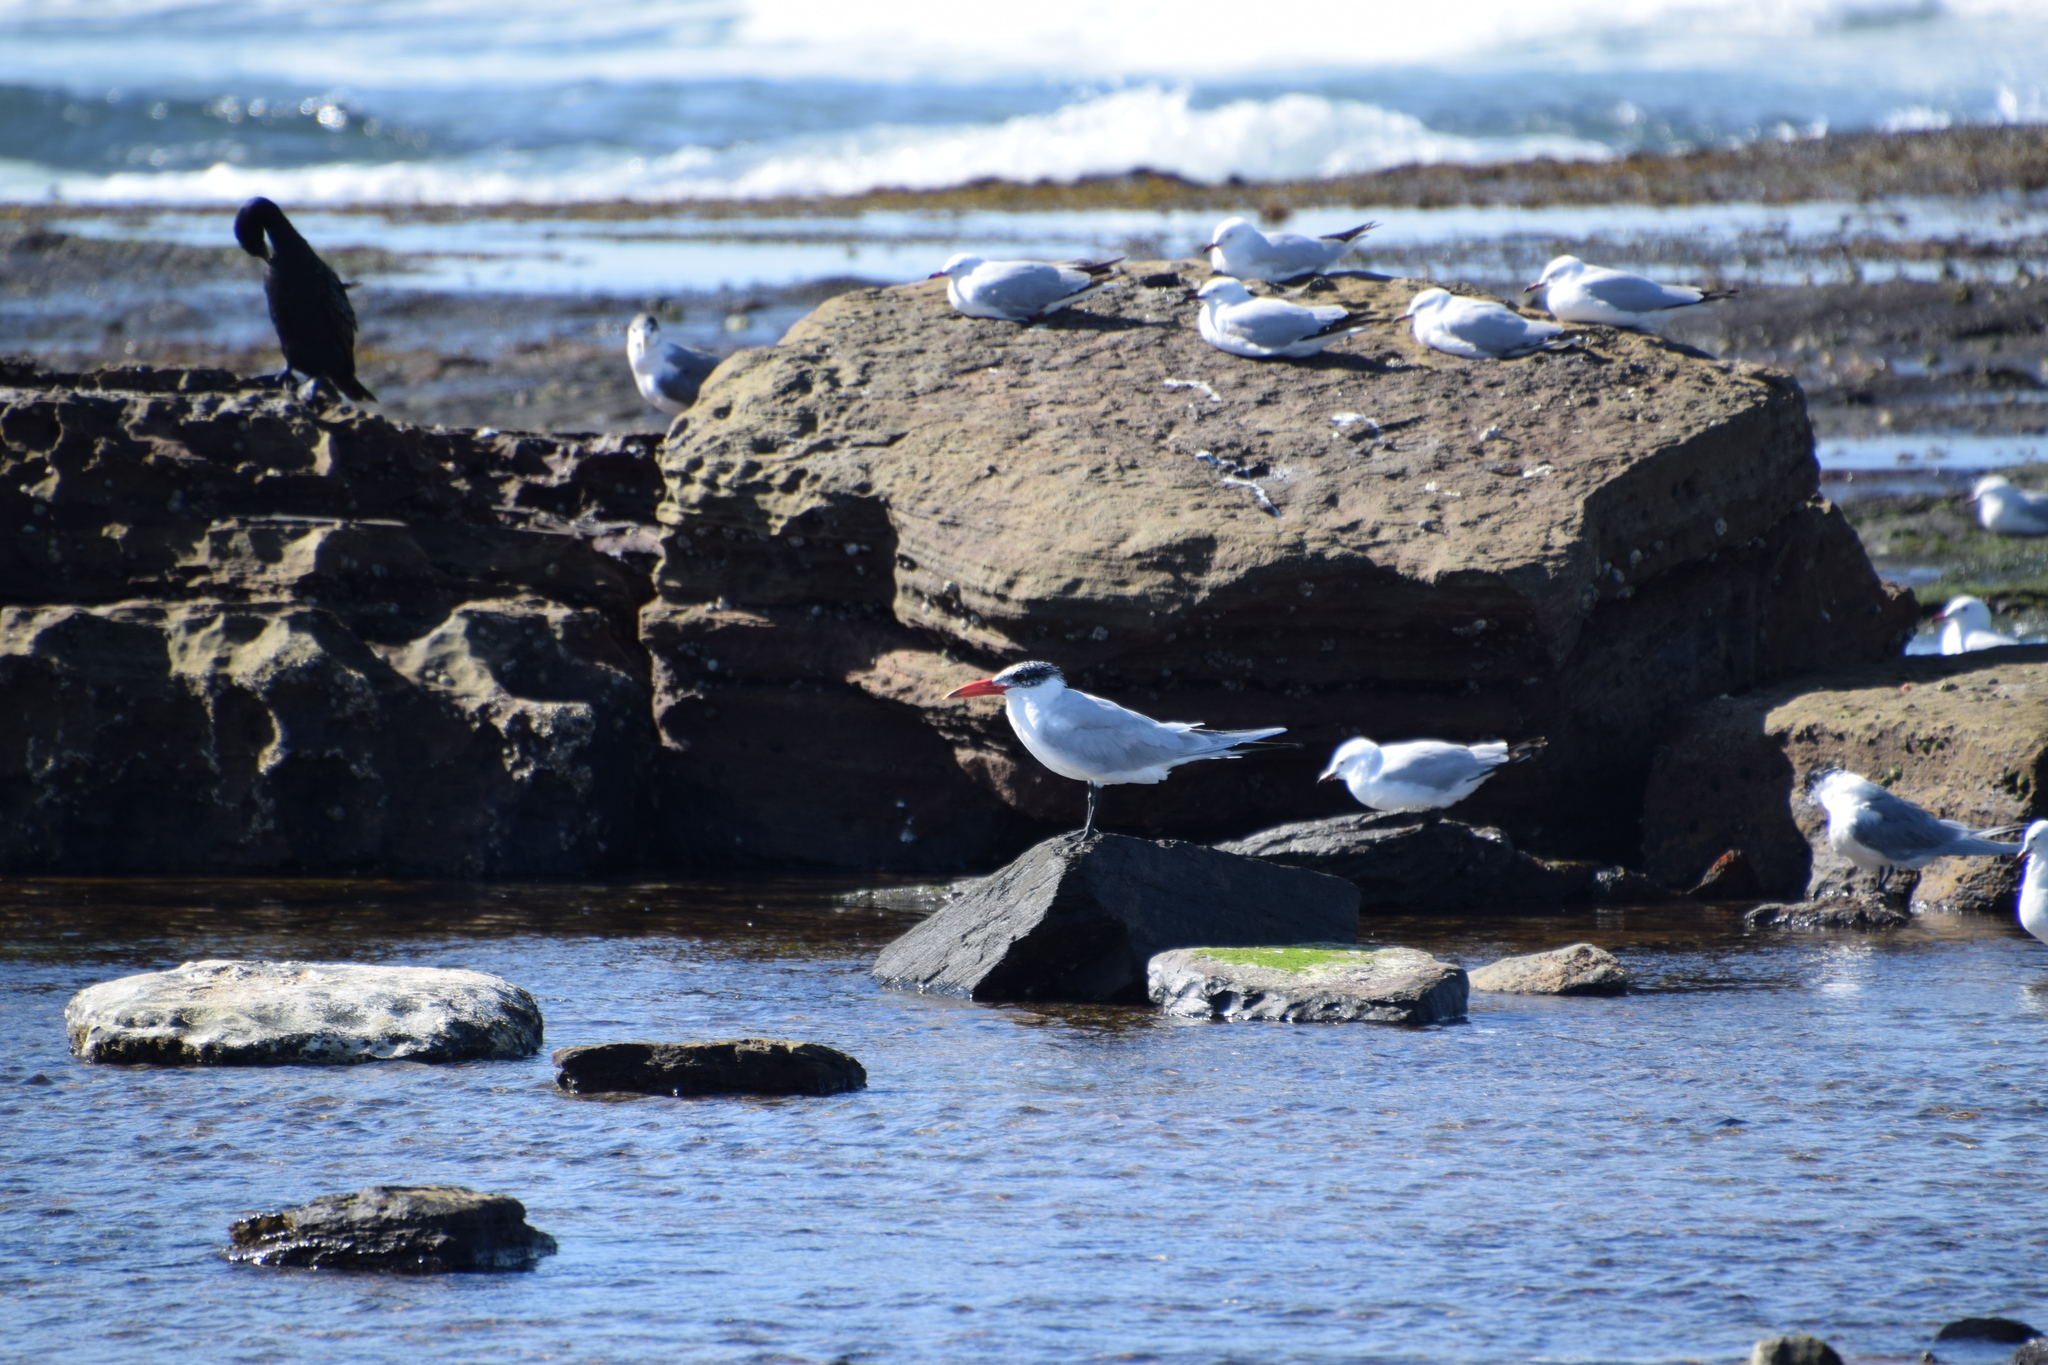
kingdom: Animalia
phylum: Chordata
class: Aves
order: Charadriiformes
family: Laridae
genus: Hydroprogne
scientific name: Hydroprogne caspia
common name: Caspian tern
